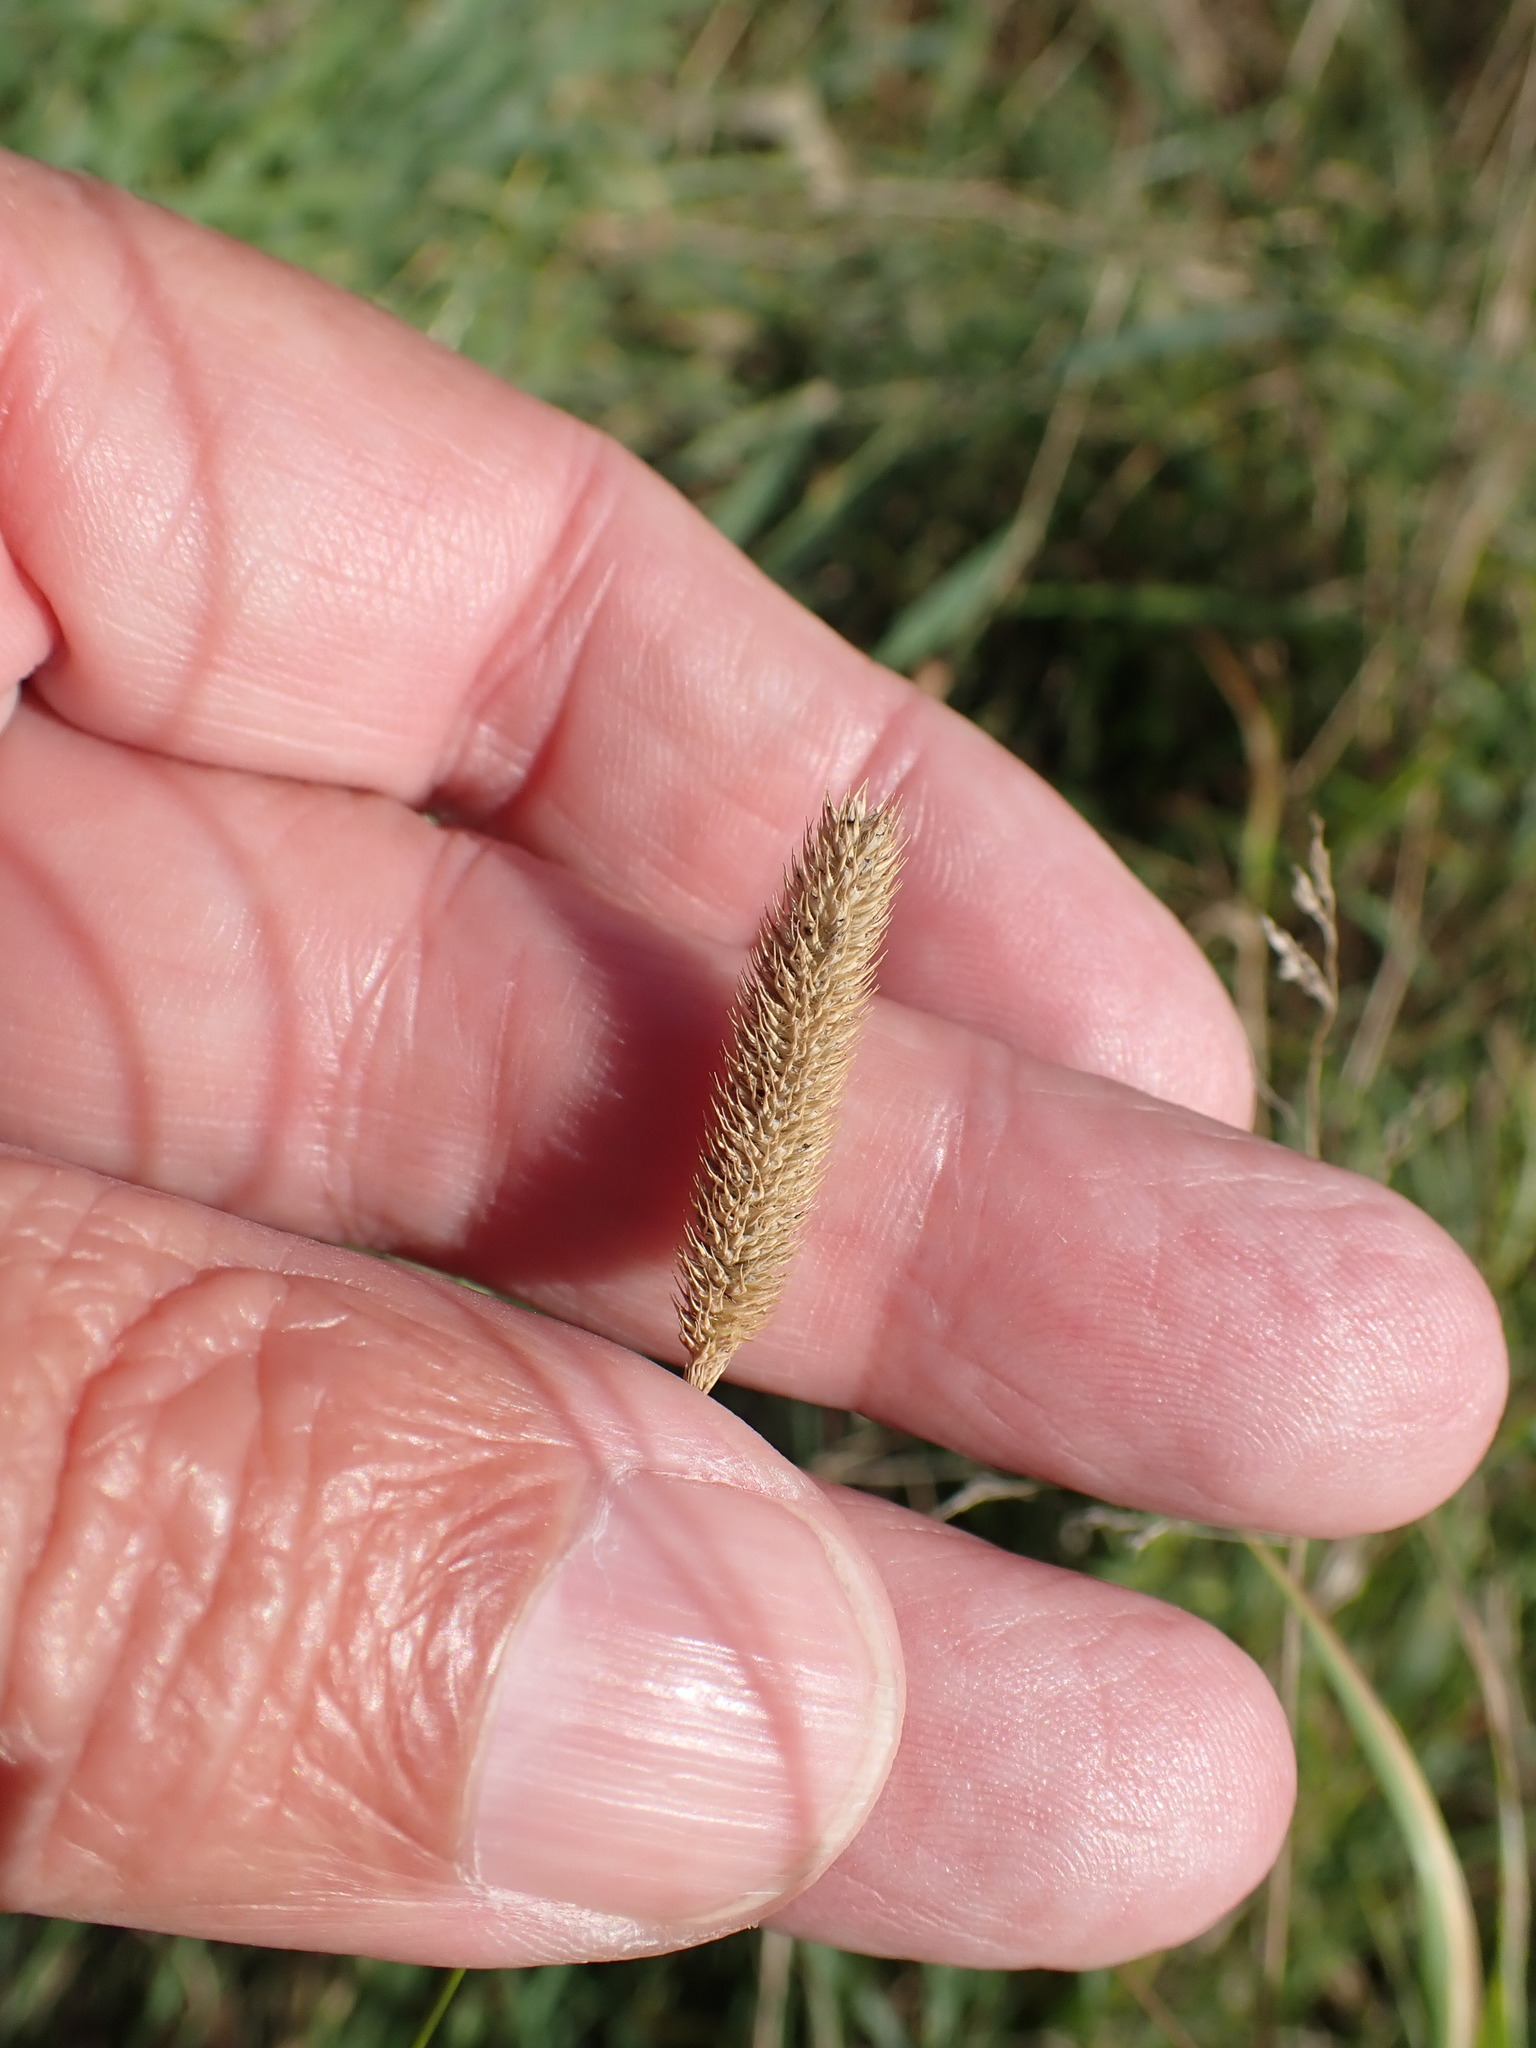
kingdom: Plantae
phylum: Tracheophyta
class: Liliopsida
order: Poales
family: Poaceae
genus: Phleum
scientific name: Phleum bertolonii
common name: Smaller cat's-tail
